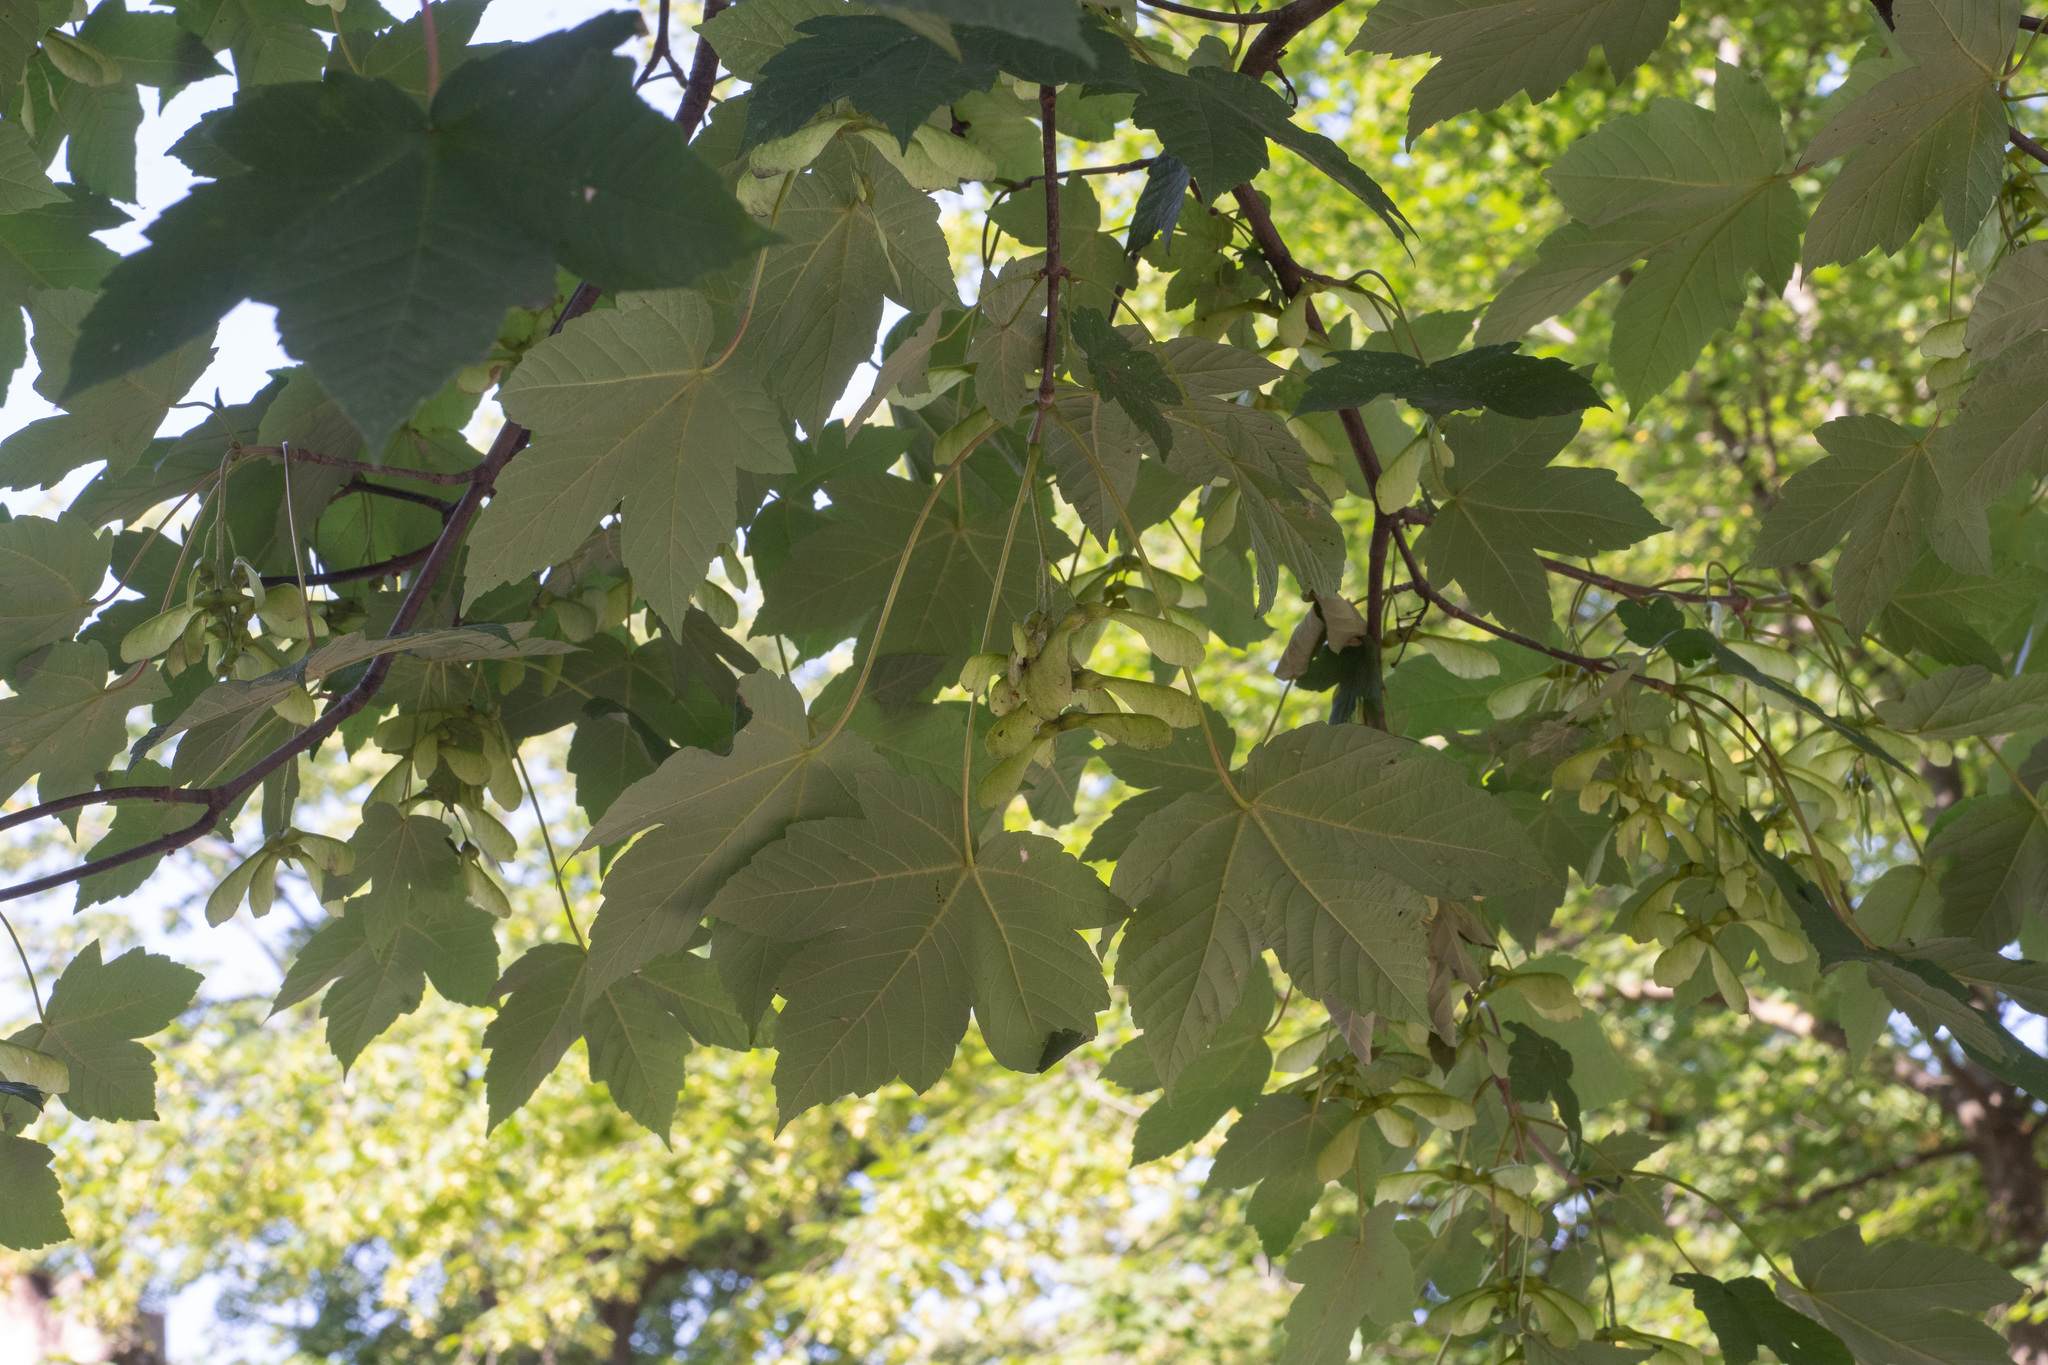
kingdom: Plantae
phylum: Tracheophyta
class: Magnoliopsida
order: Sapindales
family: Sapindaceae
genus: Acer
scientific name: Acer pseudoplatanus
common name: Sycamore
